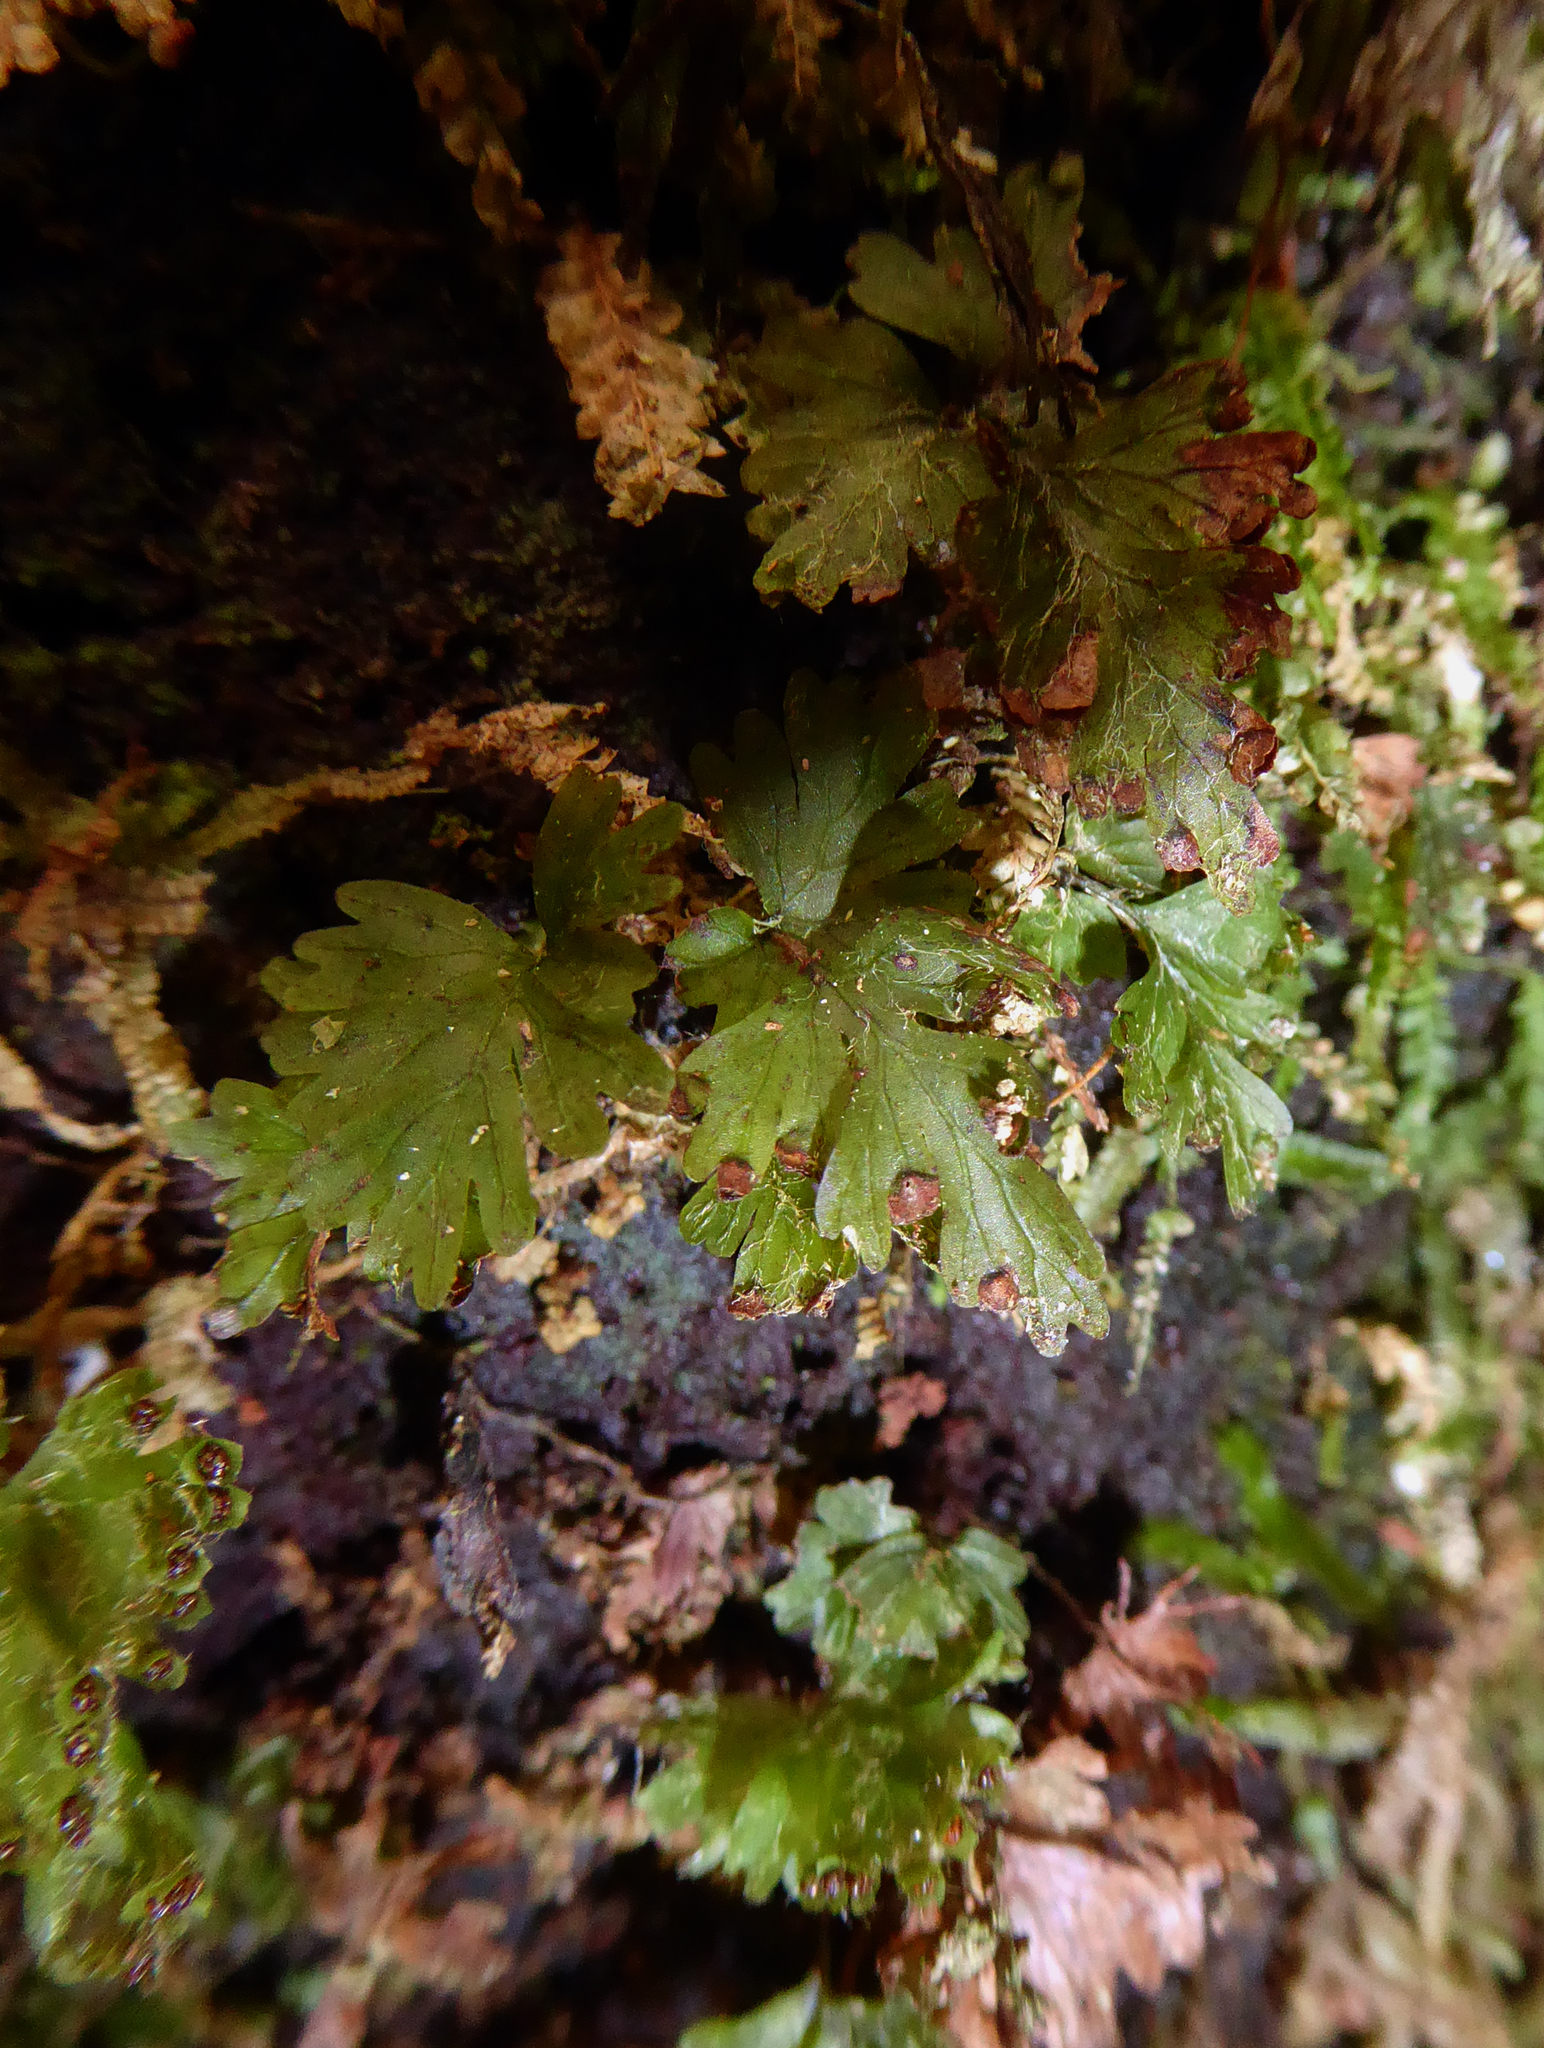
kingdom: Plantae
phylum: Tracheophyta
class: Polypodiopsida
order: Hymenophyllales
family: Hymenophyllaceae
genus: Hymenophyllum
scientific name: Hymenophyllum rufescens
